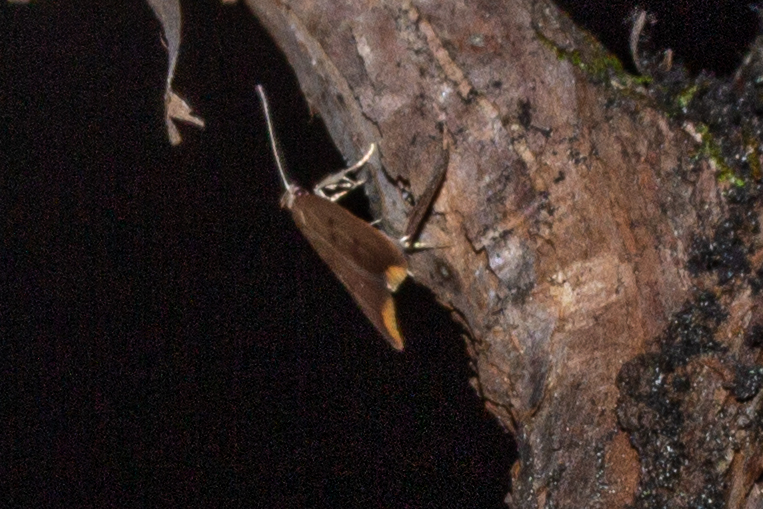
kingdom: Animalia
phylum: Arthropoda
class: Insecta
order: Lepidoptera
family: Oecophoridae
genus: Tachystola
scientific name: Tachystola acroxantha
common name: Ruddy streak
